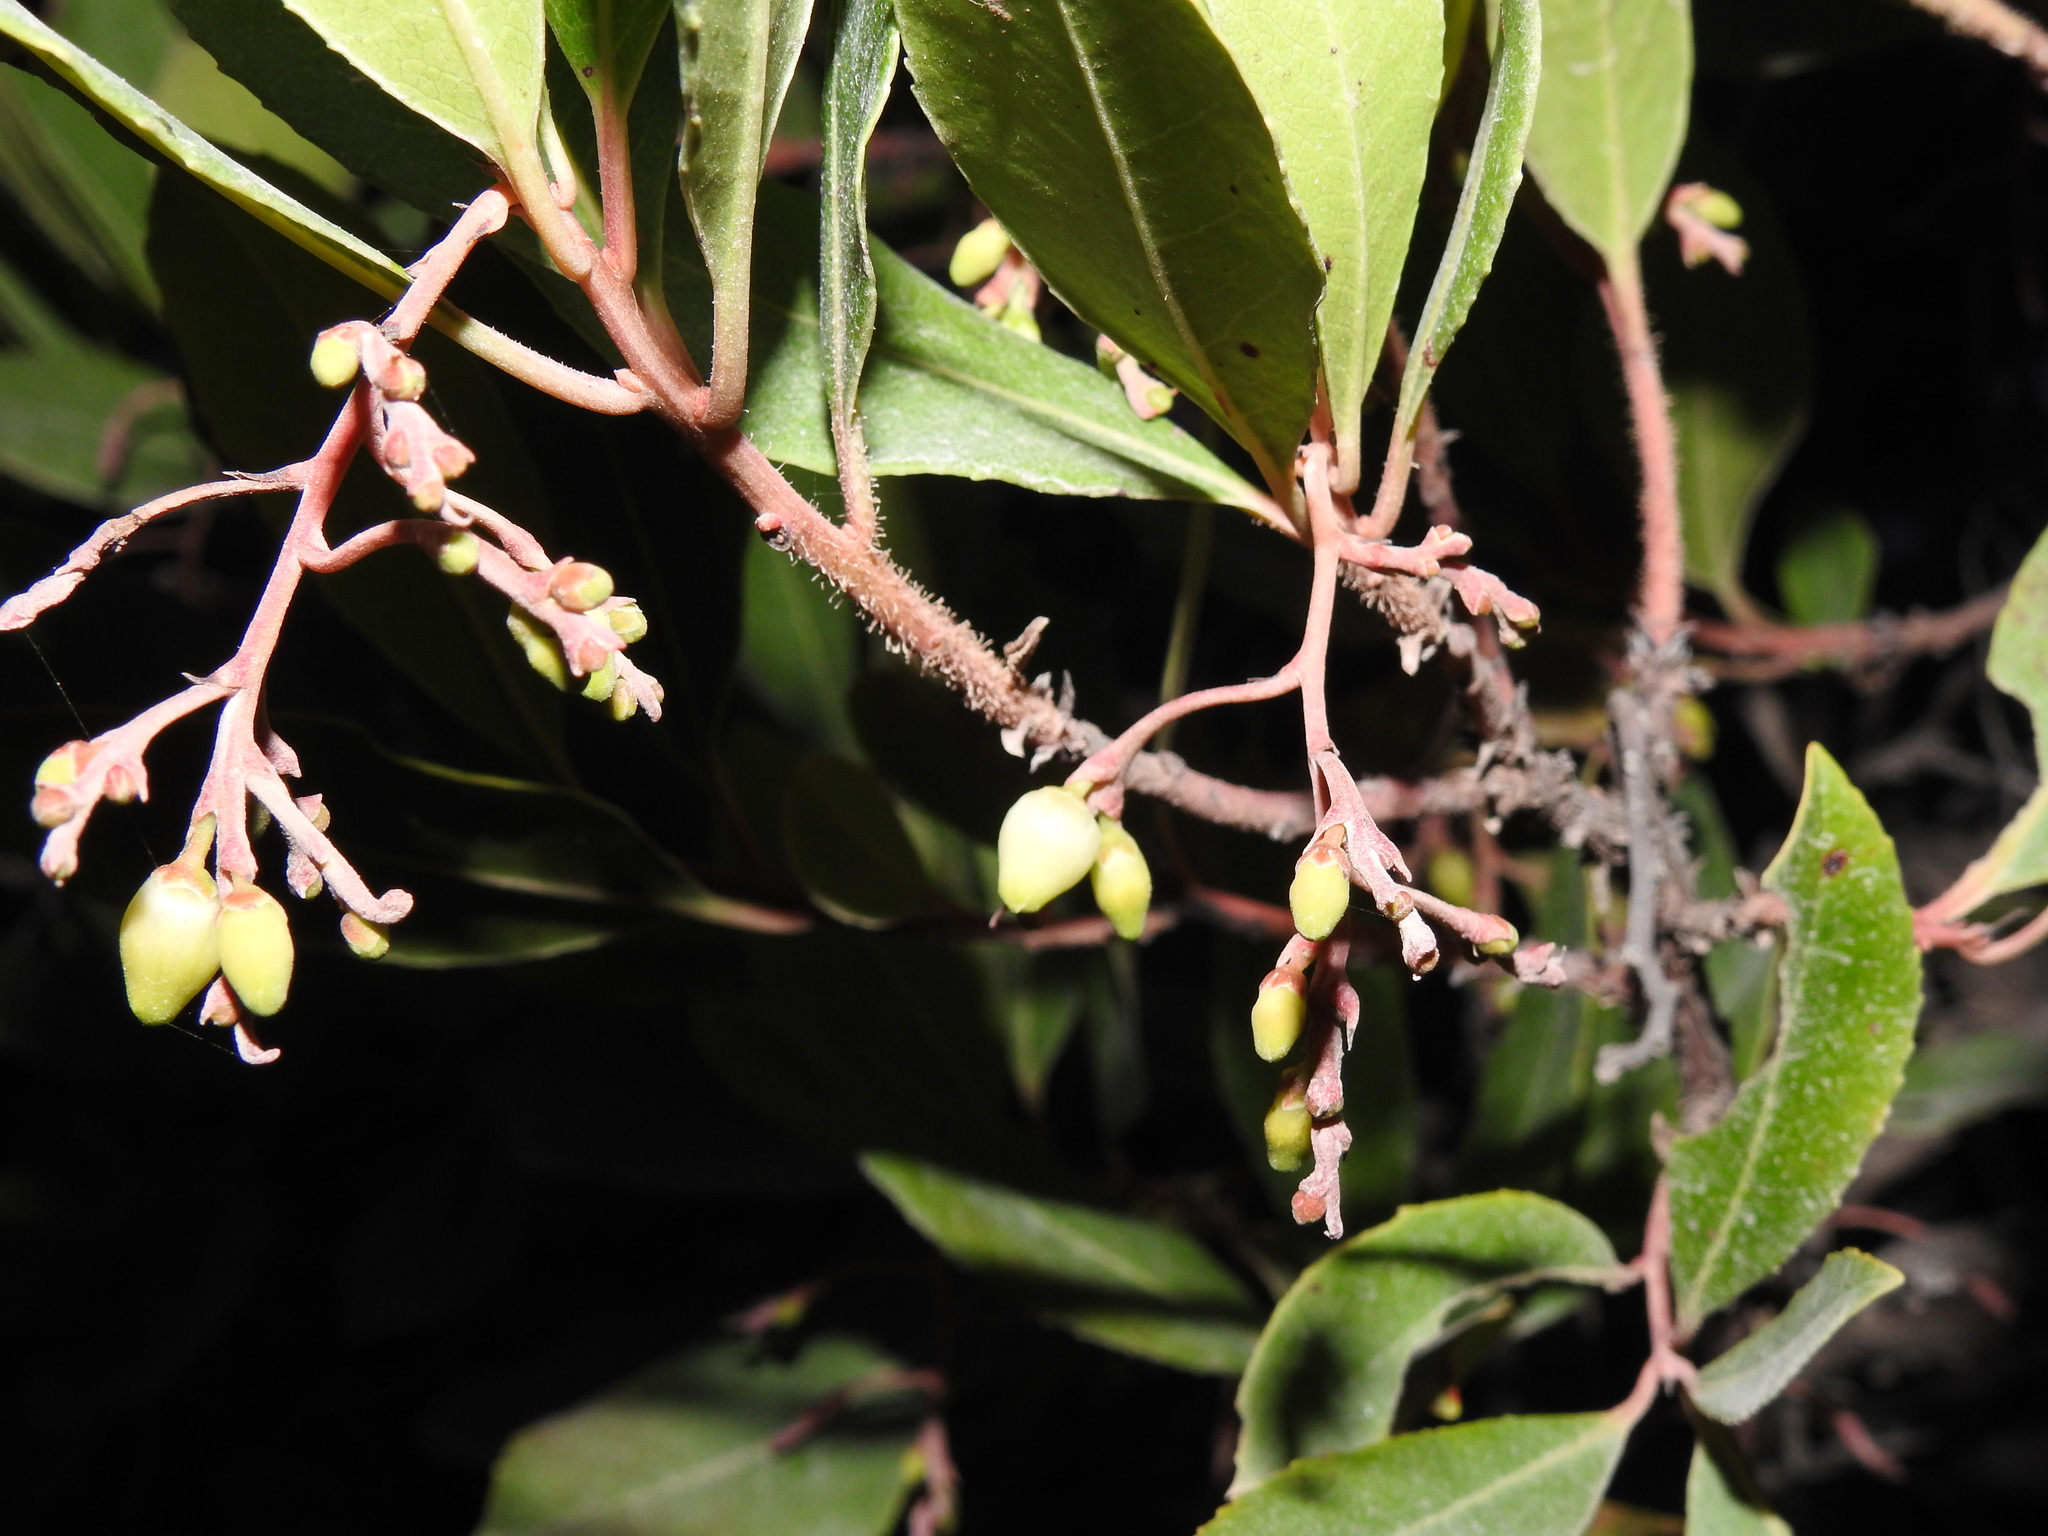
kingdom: Plantae
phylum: Tracheophyta
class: Magnoliopsida
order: Ericales
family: Ericaceae
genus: Arbutus
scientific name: Arbutus unedo
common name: Strawberry-tree
